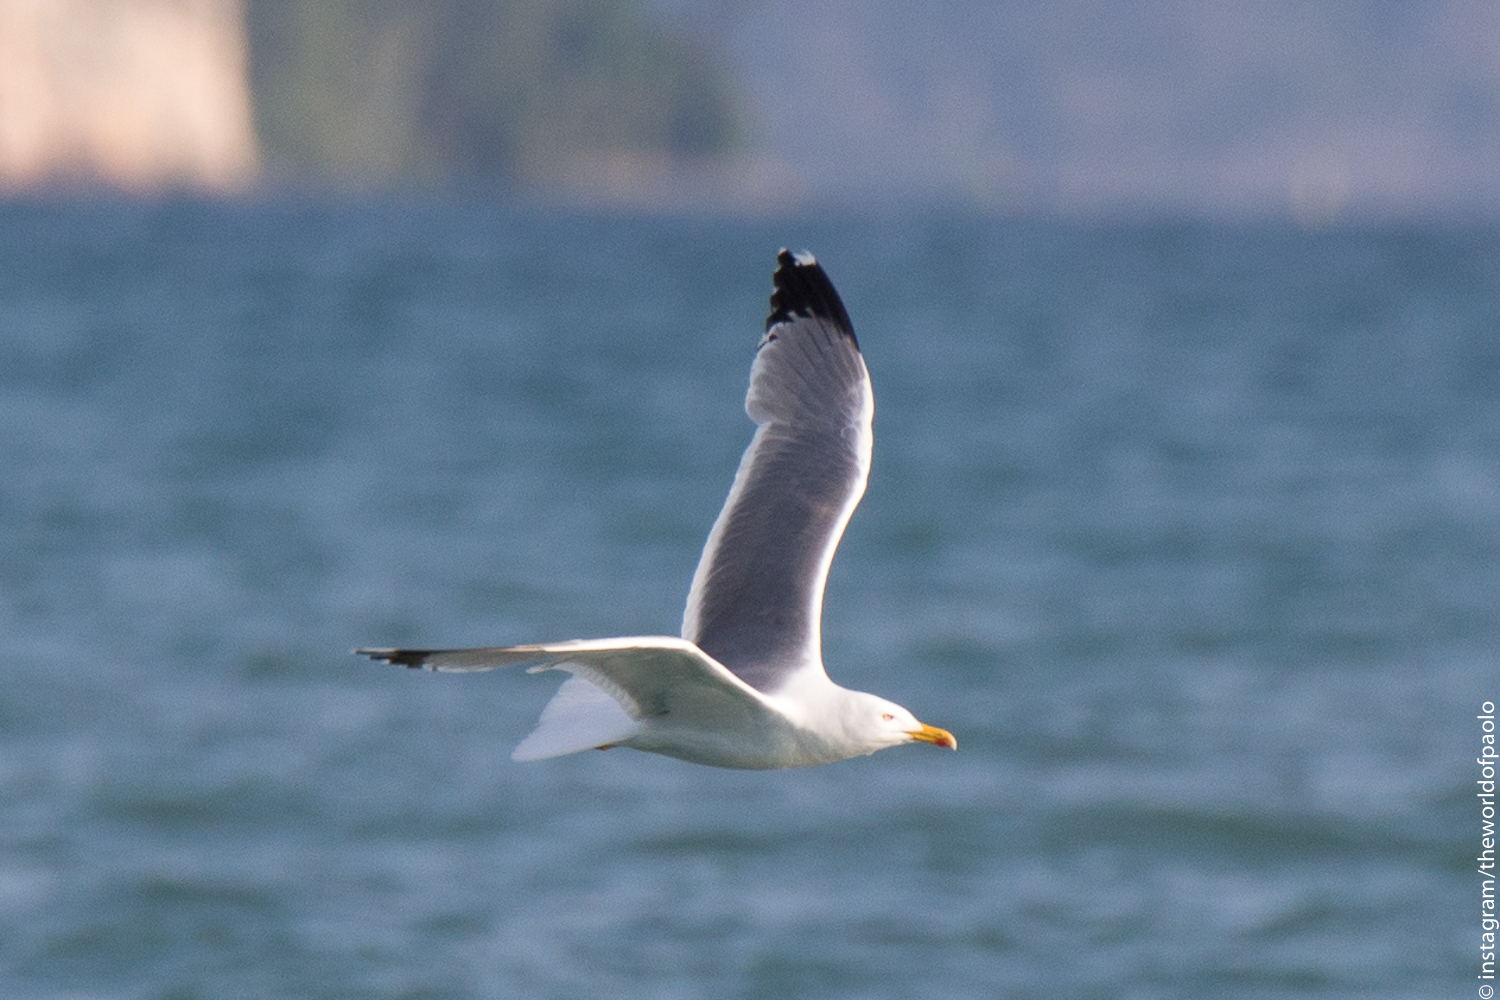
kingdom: Animalia
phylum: Chordata
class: Aves
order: Charadriiformes
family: Laridae
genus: Larus
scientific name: Larus michahellis
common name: Yellow-legged gull
